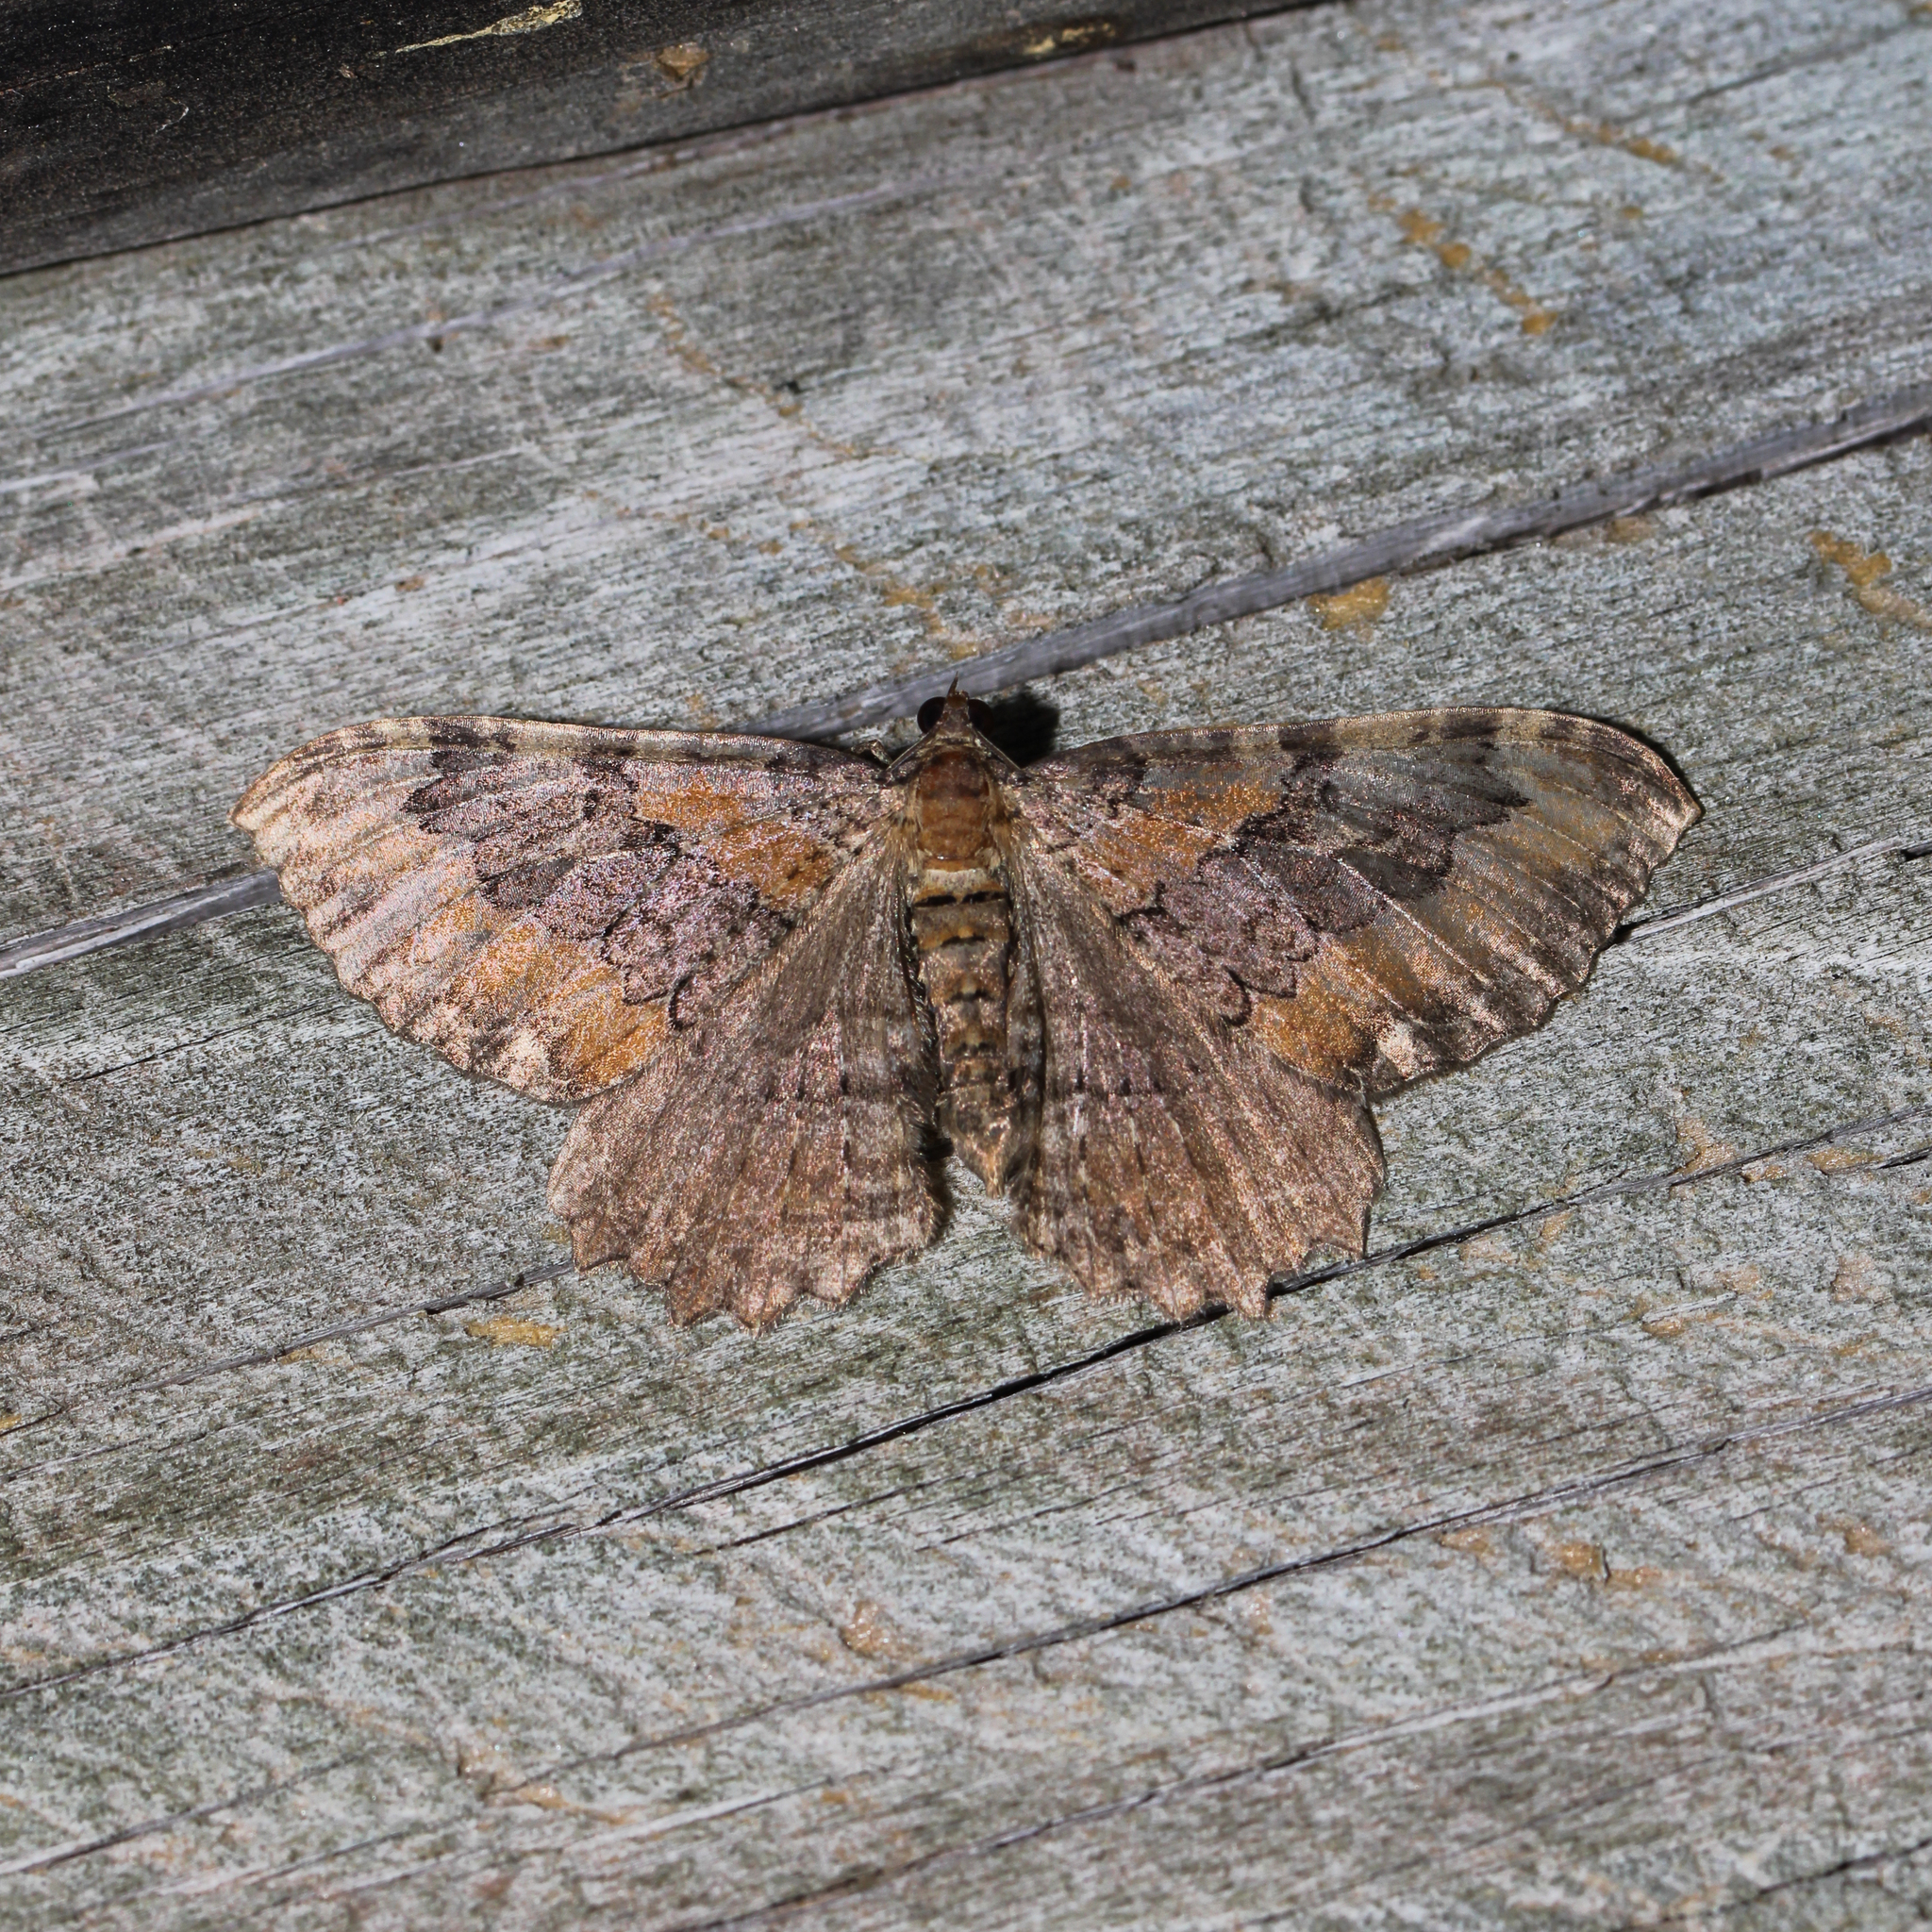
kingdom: Animalia
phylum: Arthropoda
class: Insecta
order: Lepidoptera
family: Geometridae
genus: Rheumaptera
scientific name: Rheumaptera
